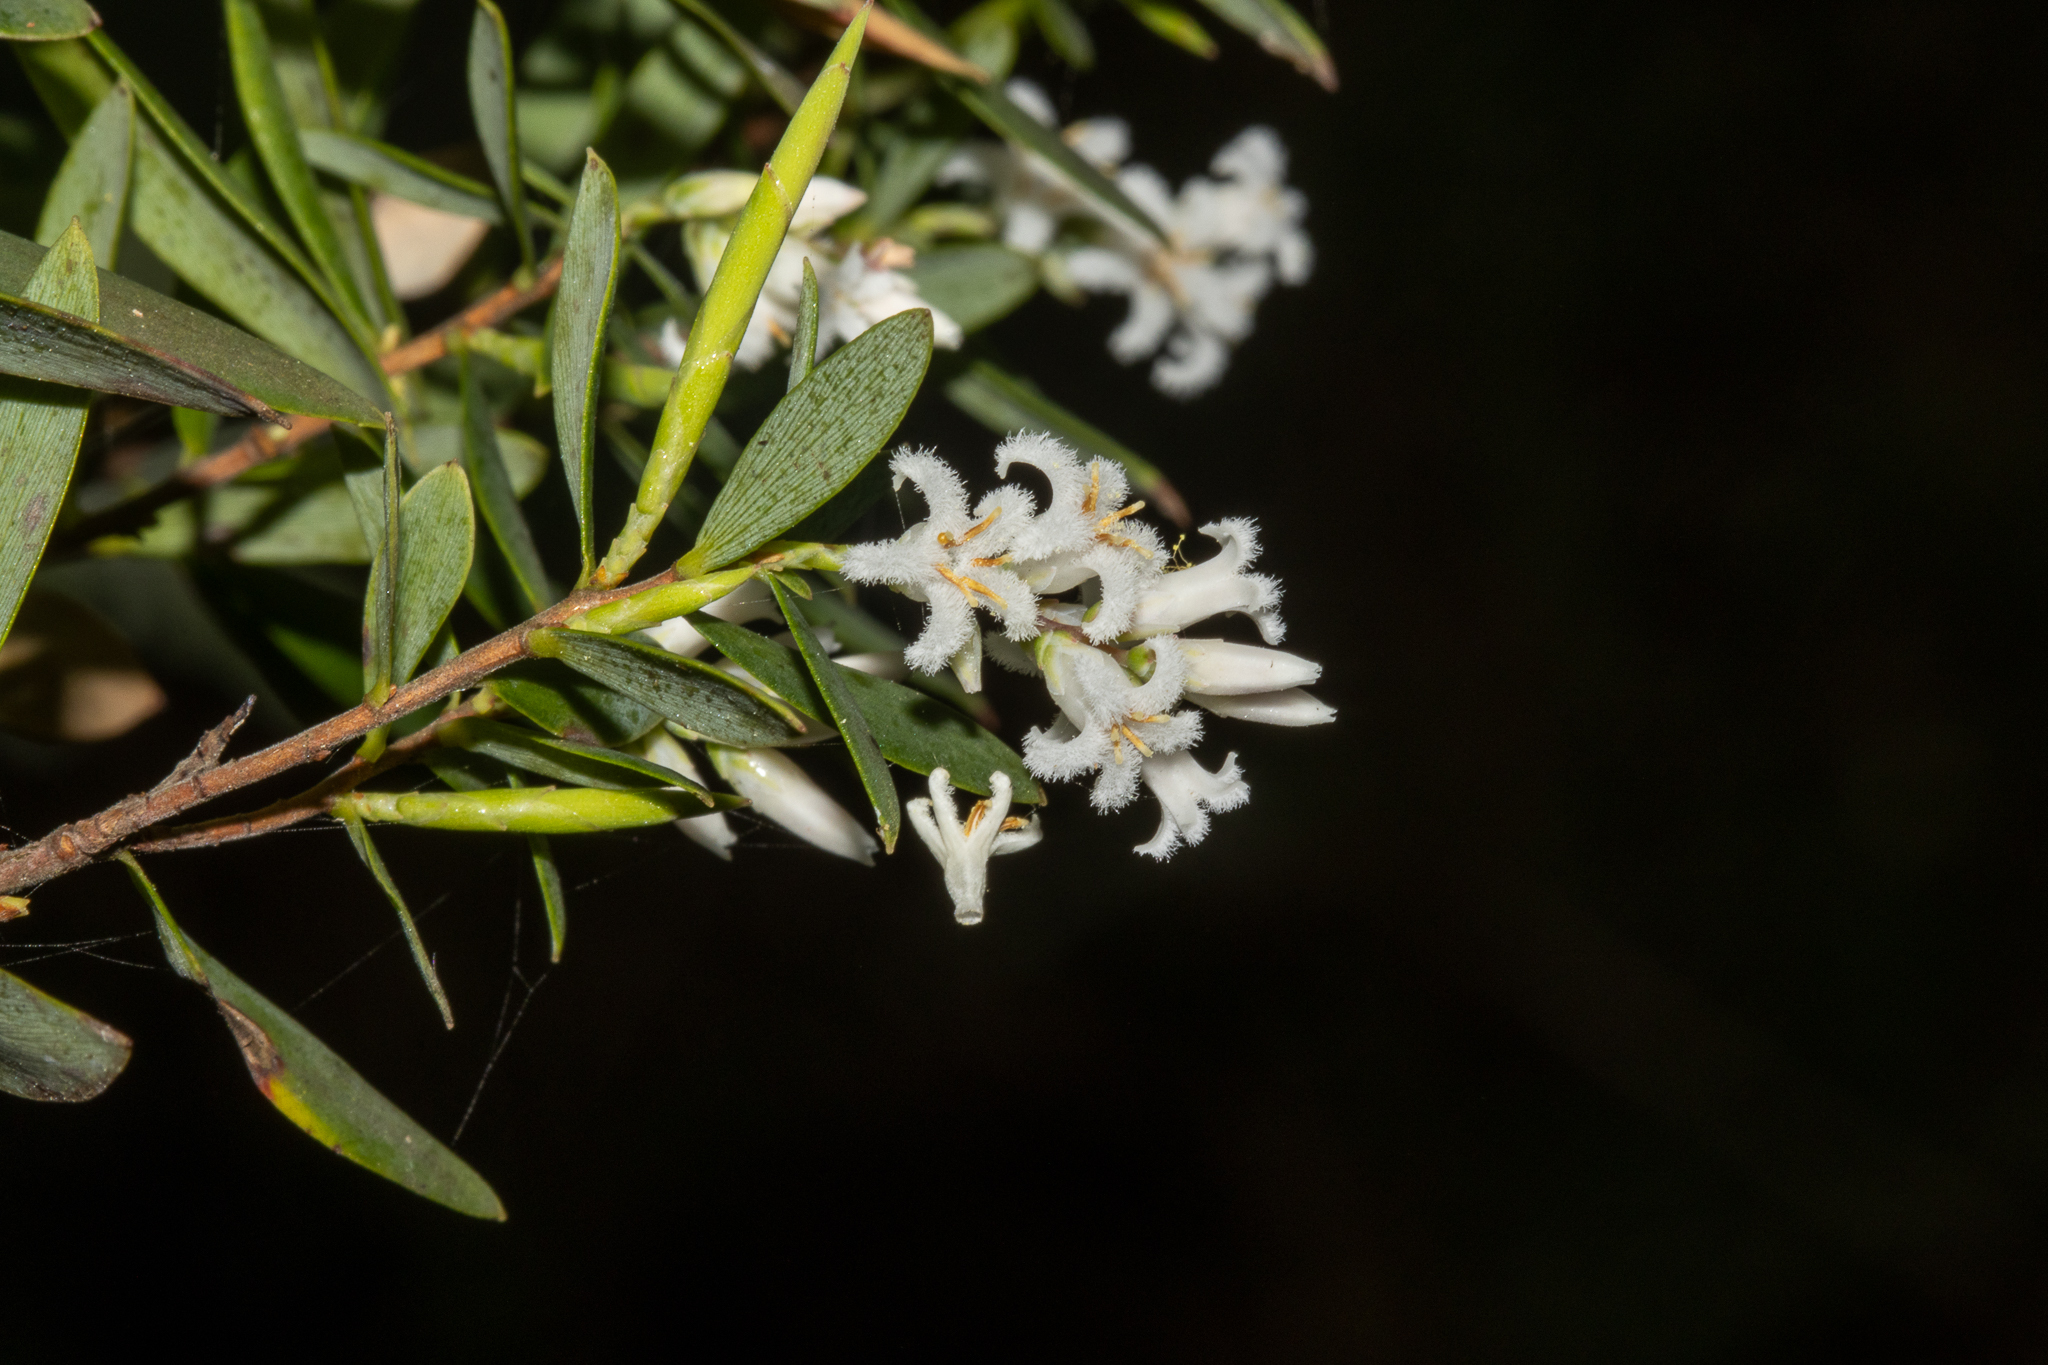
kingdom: Plantae
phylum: Tracheophyta
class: Magnoliopsida
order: Ericales
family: Ericaceae
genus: Leptecophylla
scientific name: Leptecophylla parvifolia
